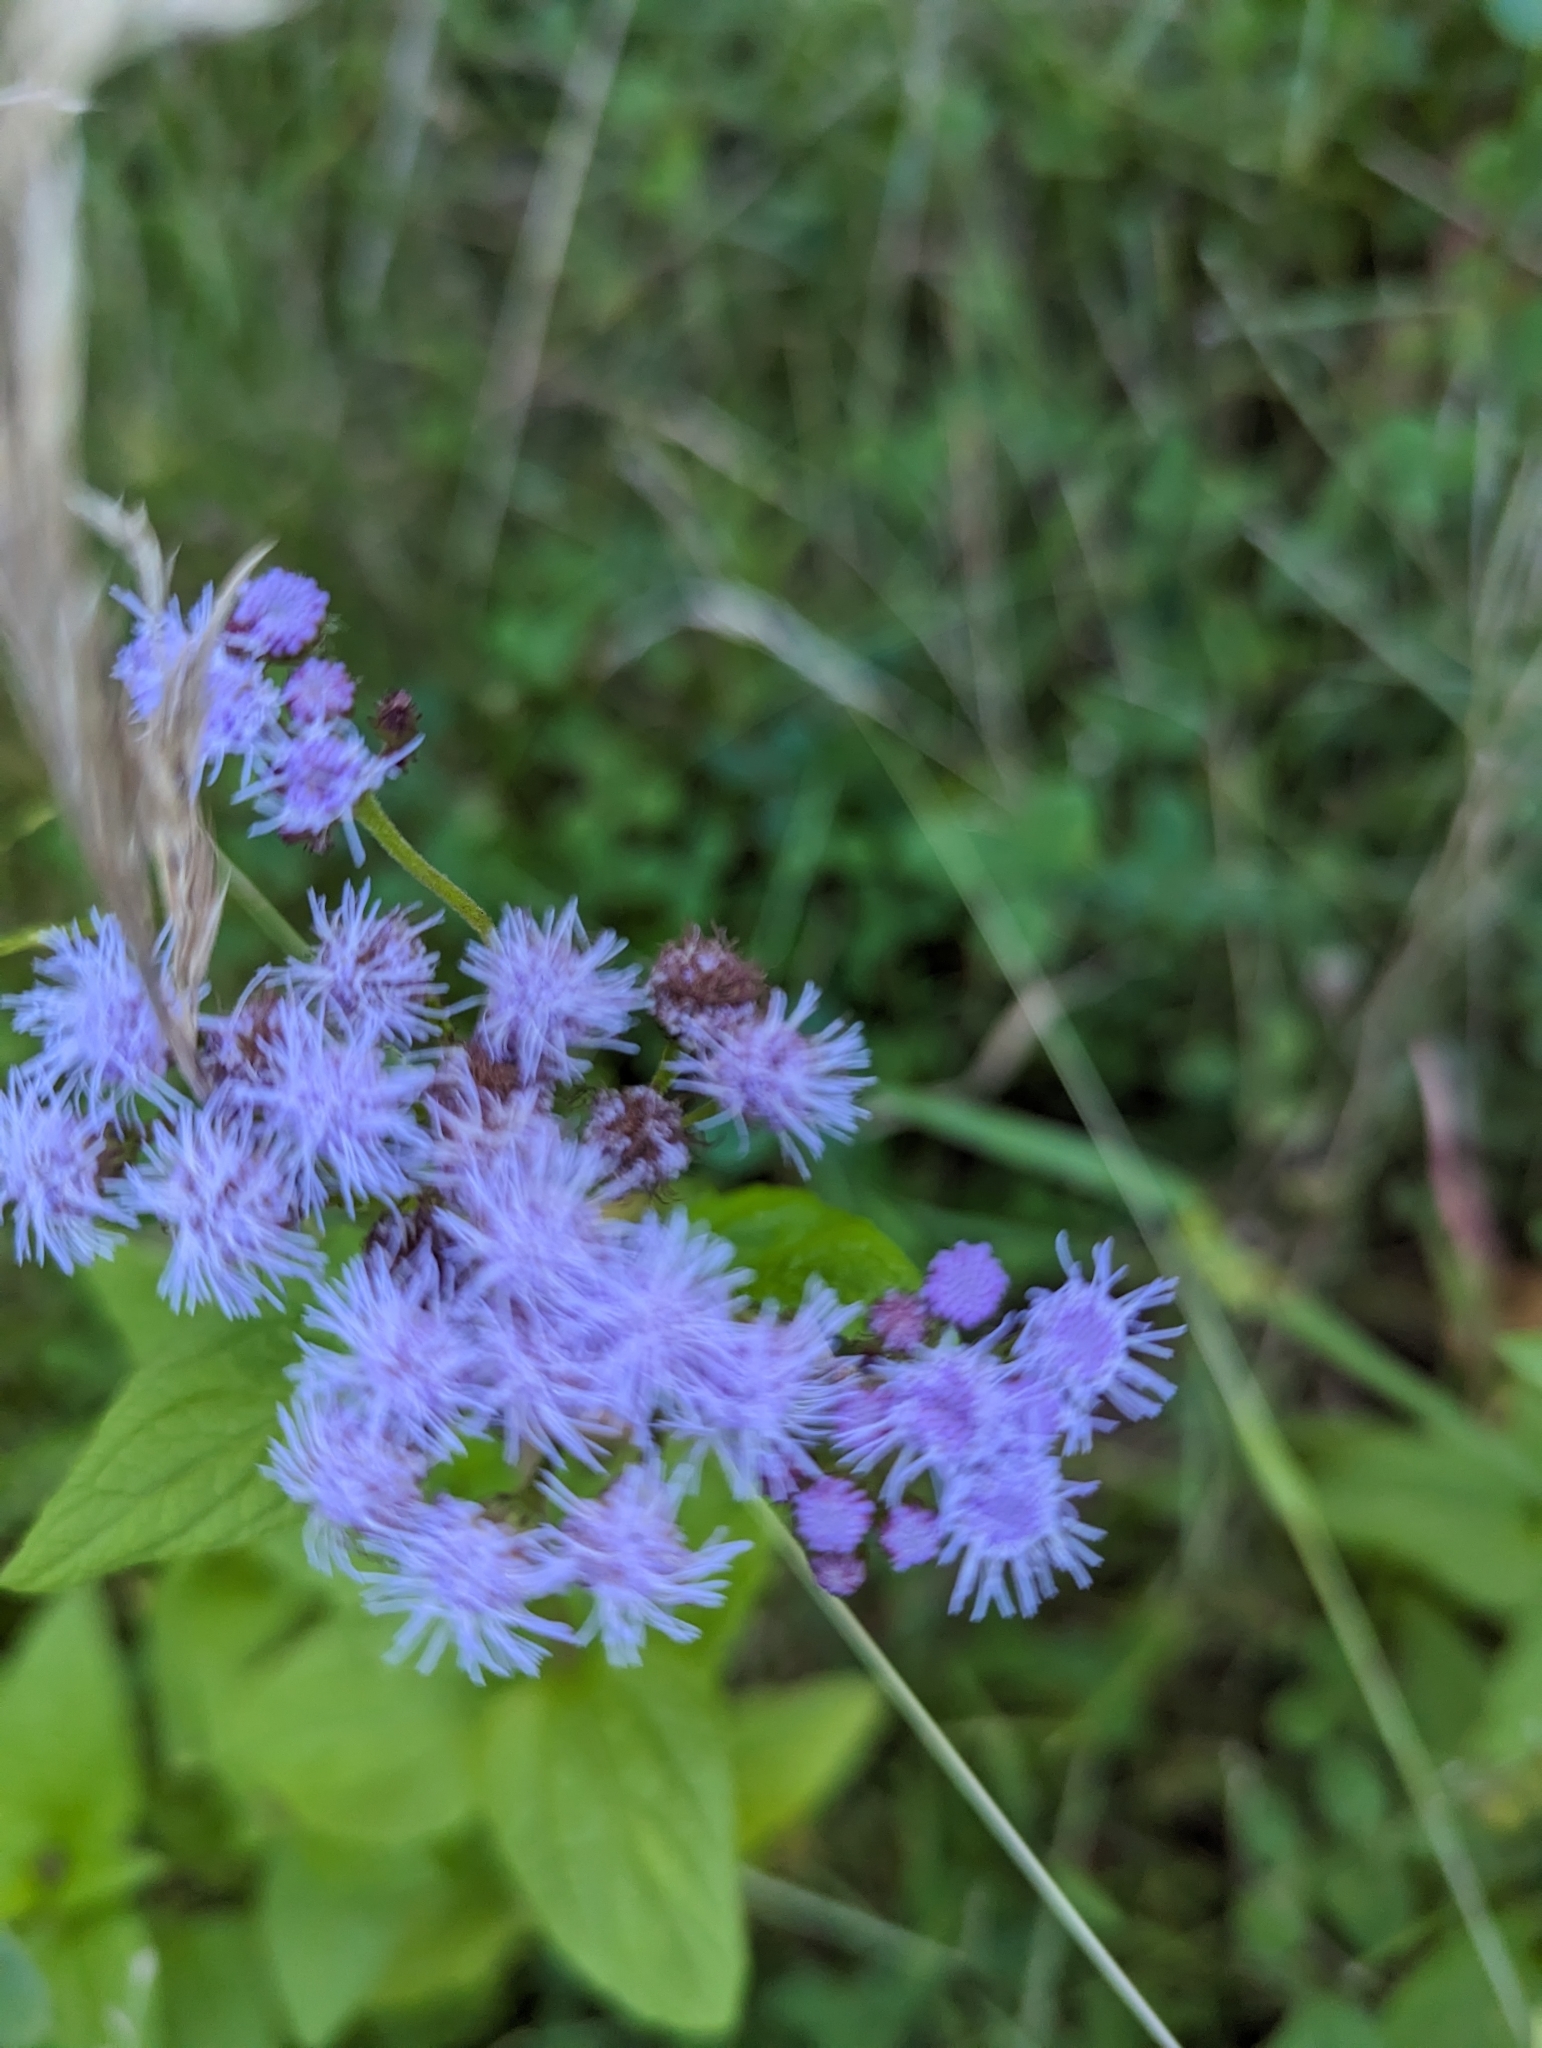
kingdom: Plantae
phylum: Tracheophyta
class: Magnoliopsida
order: Asterales
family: Asteraceae
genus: Conoclinium
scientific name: Conoclinium coelestinum
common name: Blue mistflower
